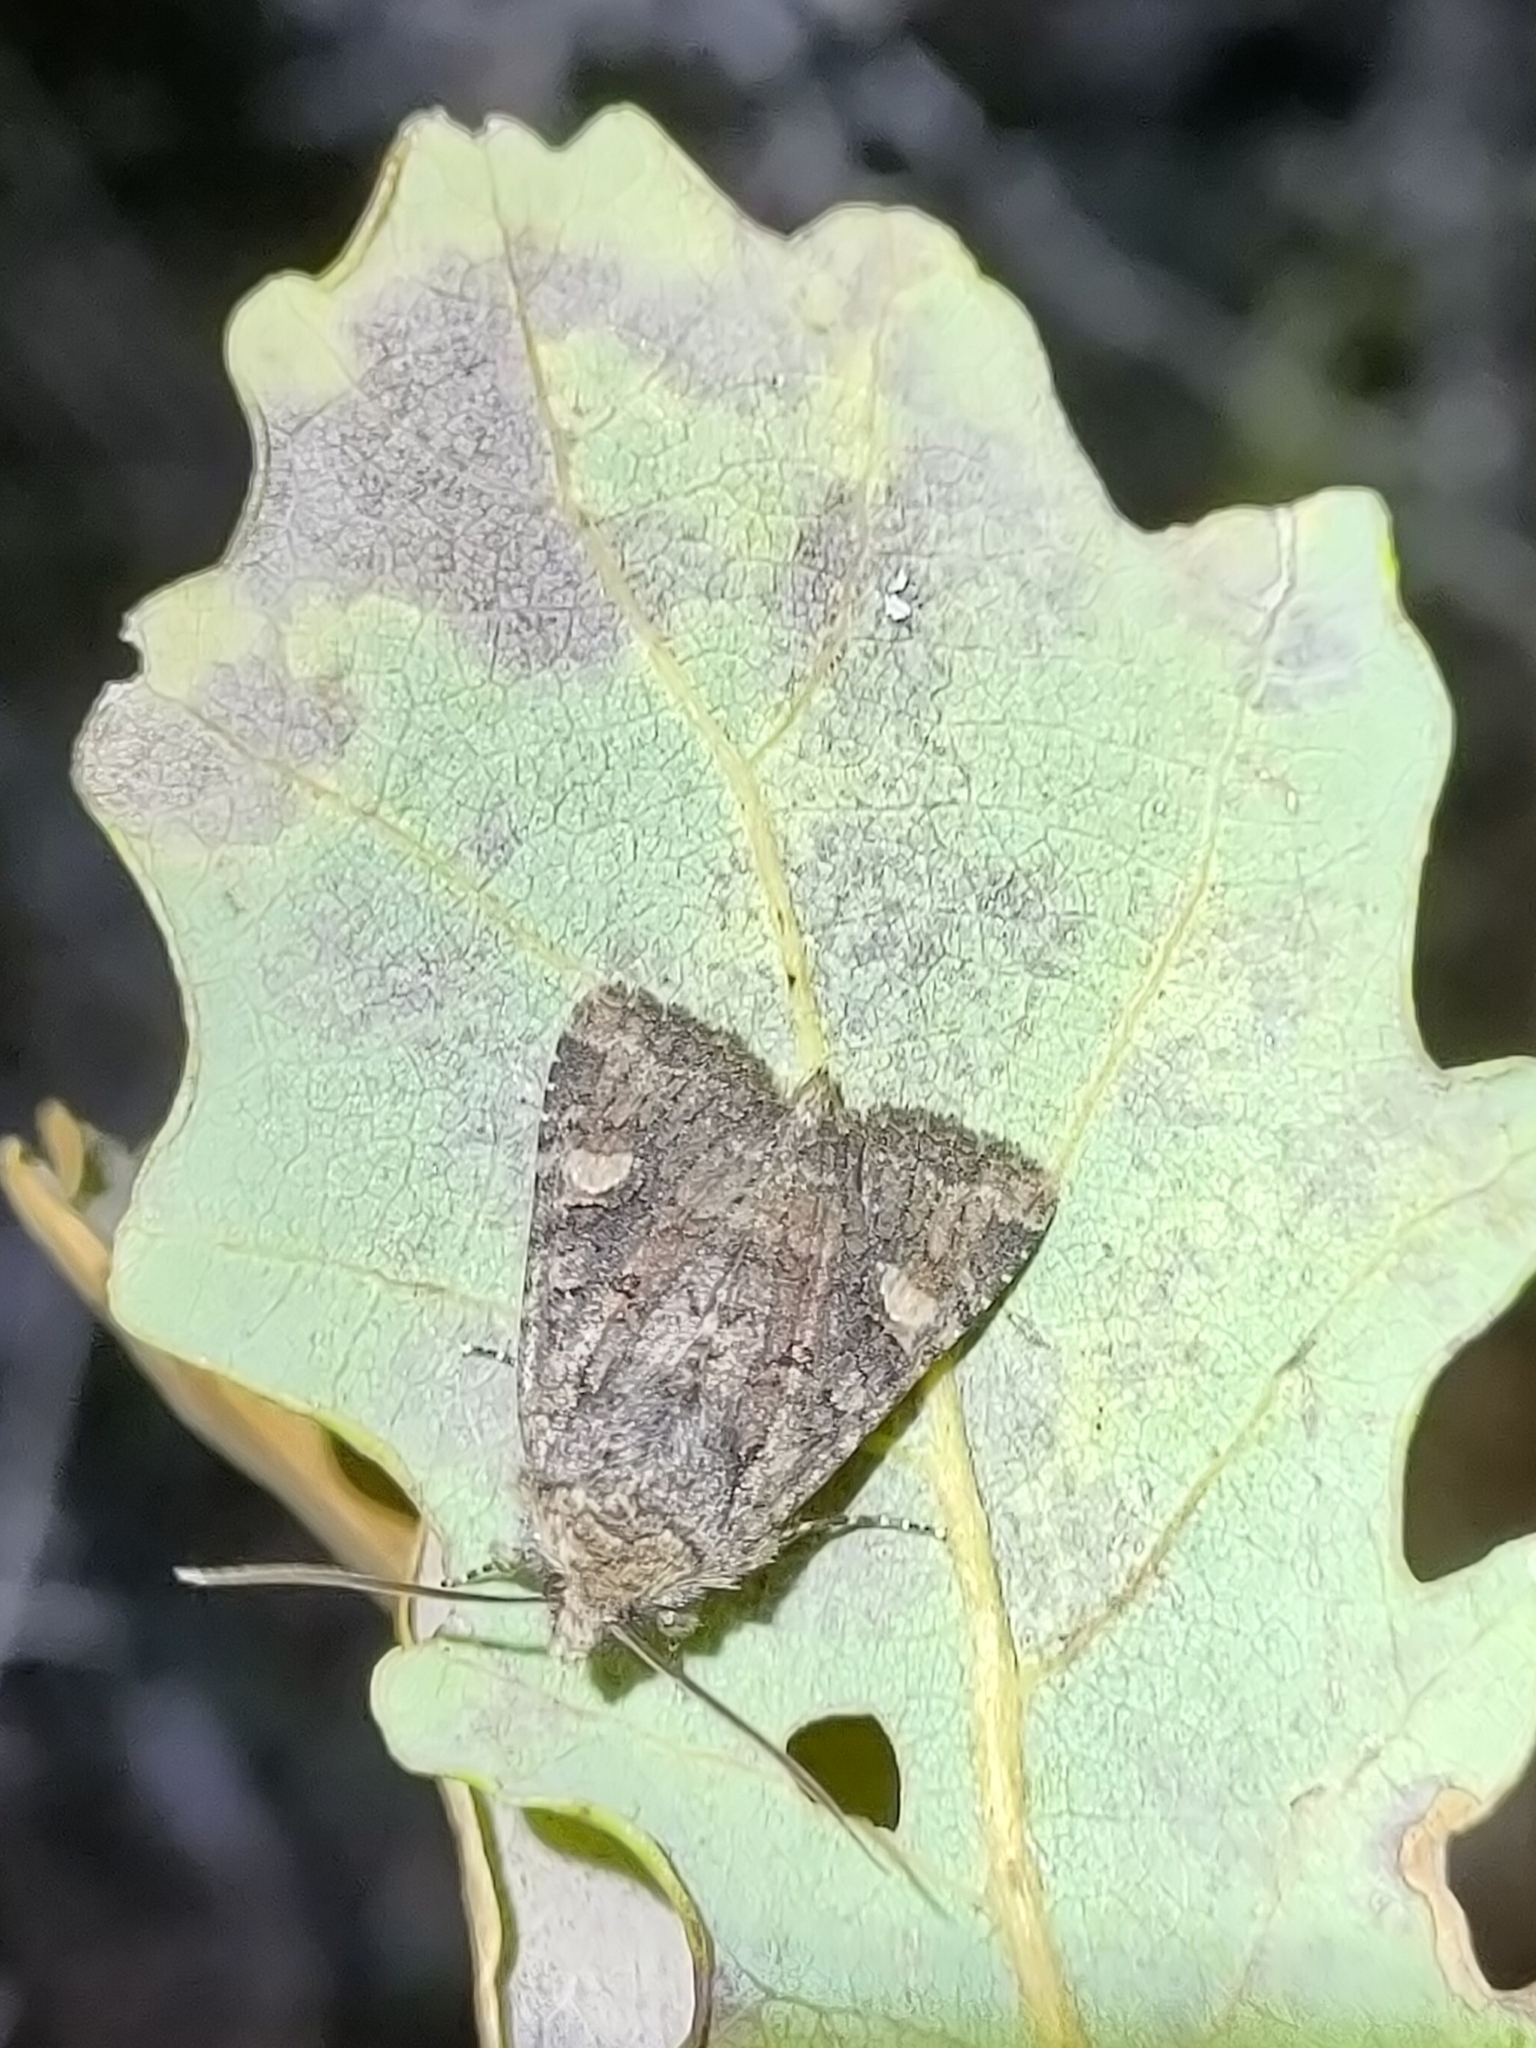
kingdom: Animalia
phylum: Arthropoda
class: Insecta
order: Lepidoptera
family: Noctuidae
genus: Dryobota
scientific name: Dryobota labecula
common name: Oak rustic
